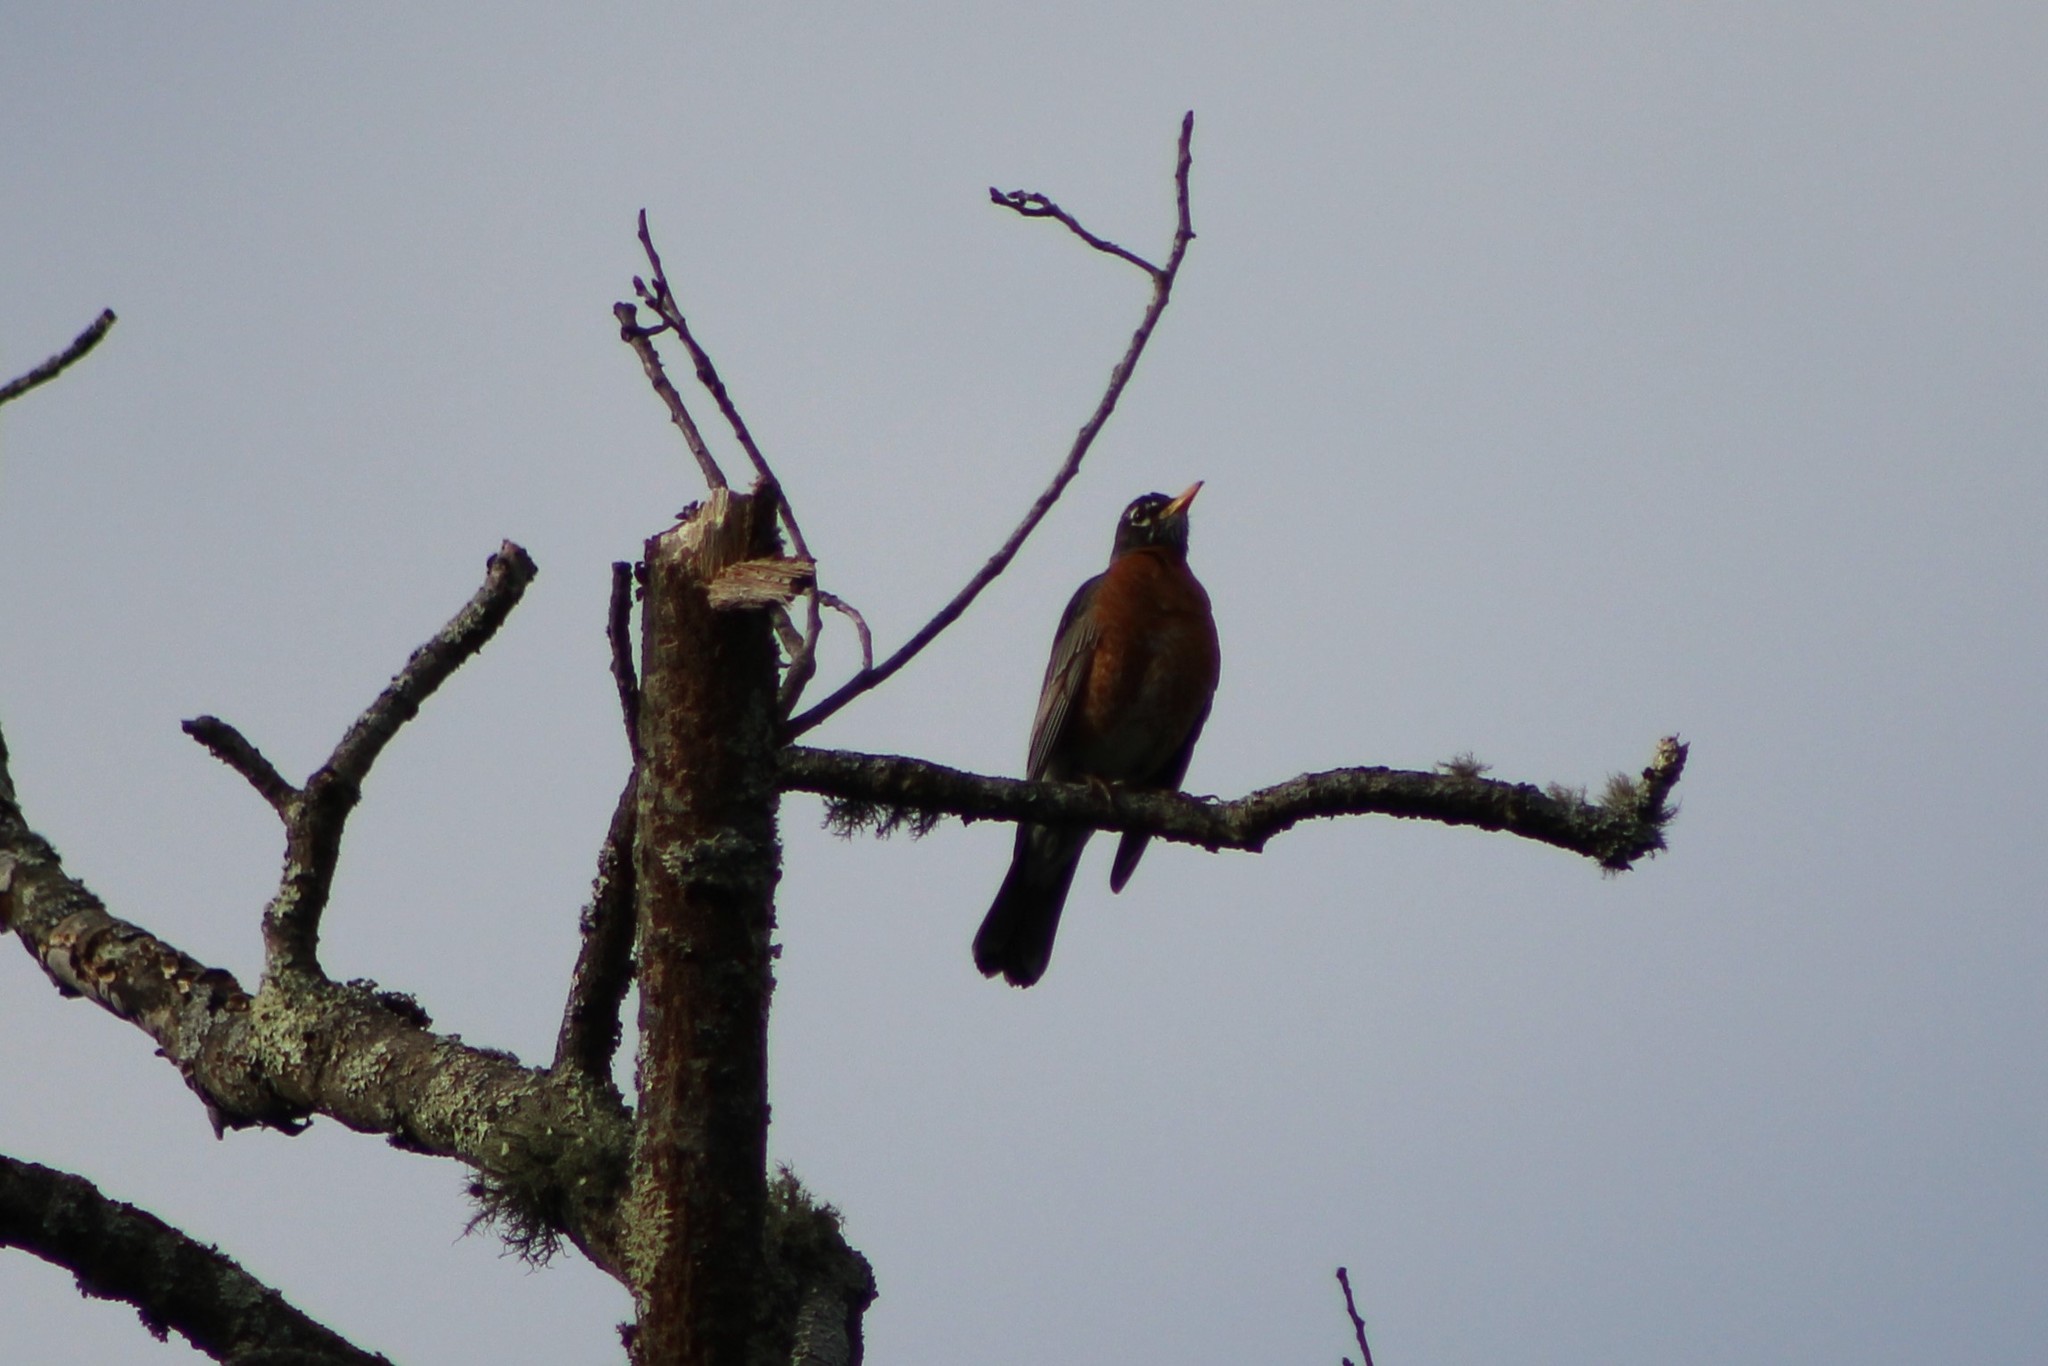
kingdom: Animalia
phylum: Chordata
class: Aves
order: Passeriformes
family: Turdidae
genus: Turdus
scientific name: Turdus migratorius
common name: American robin
